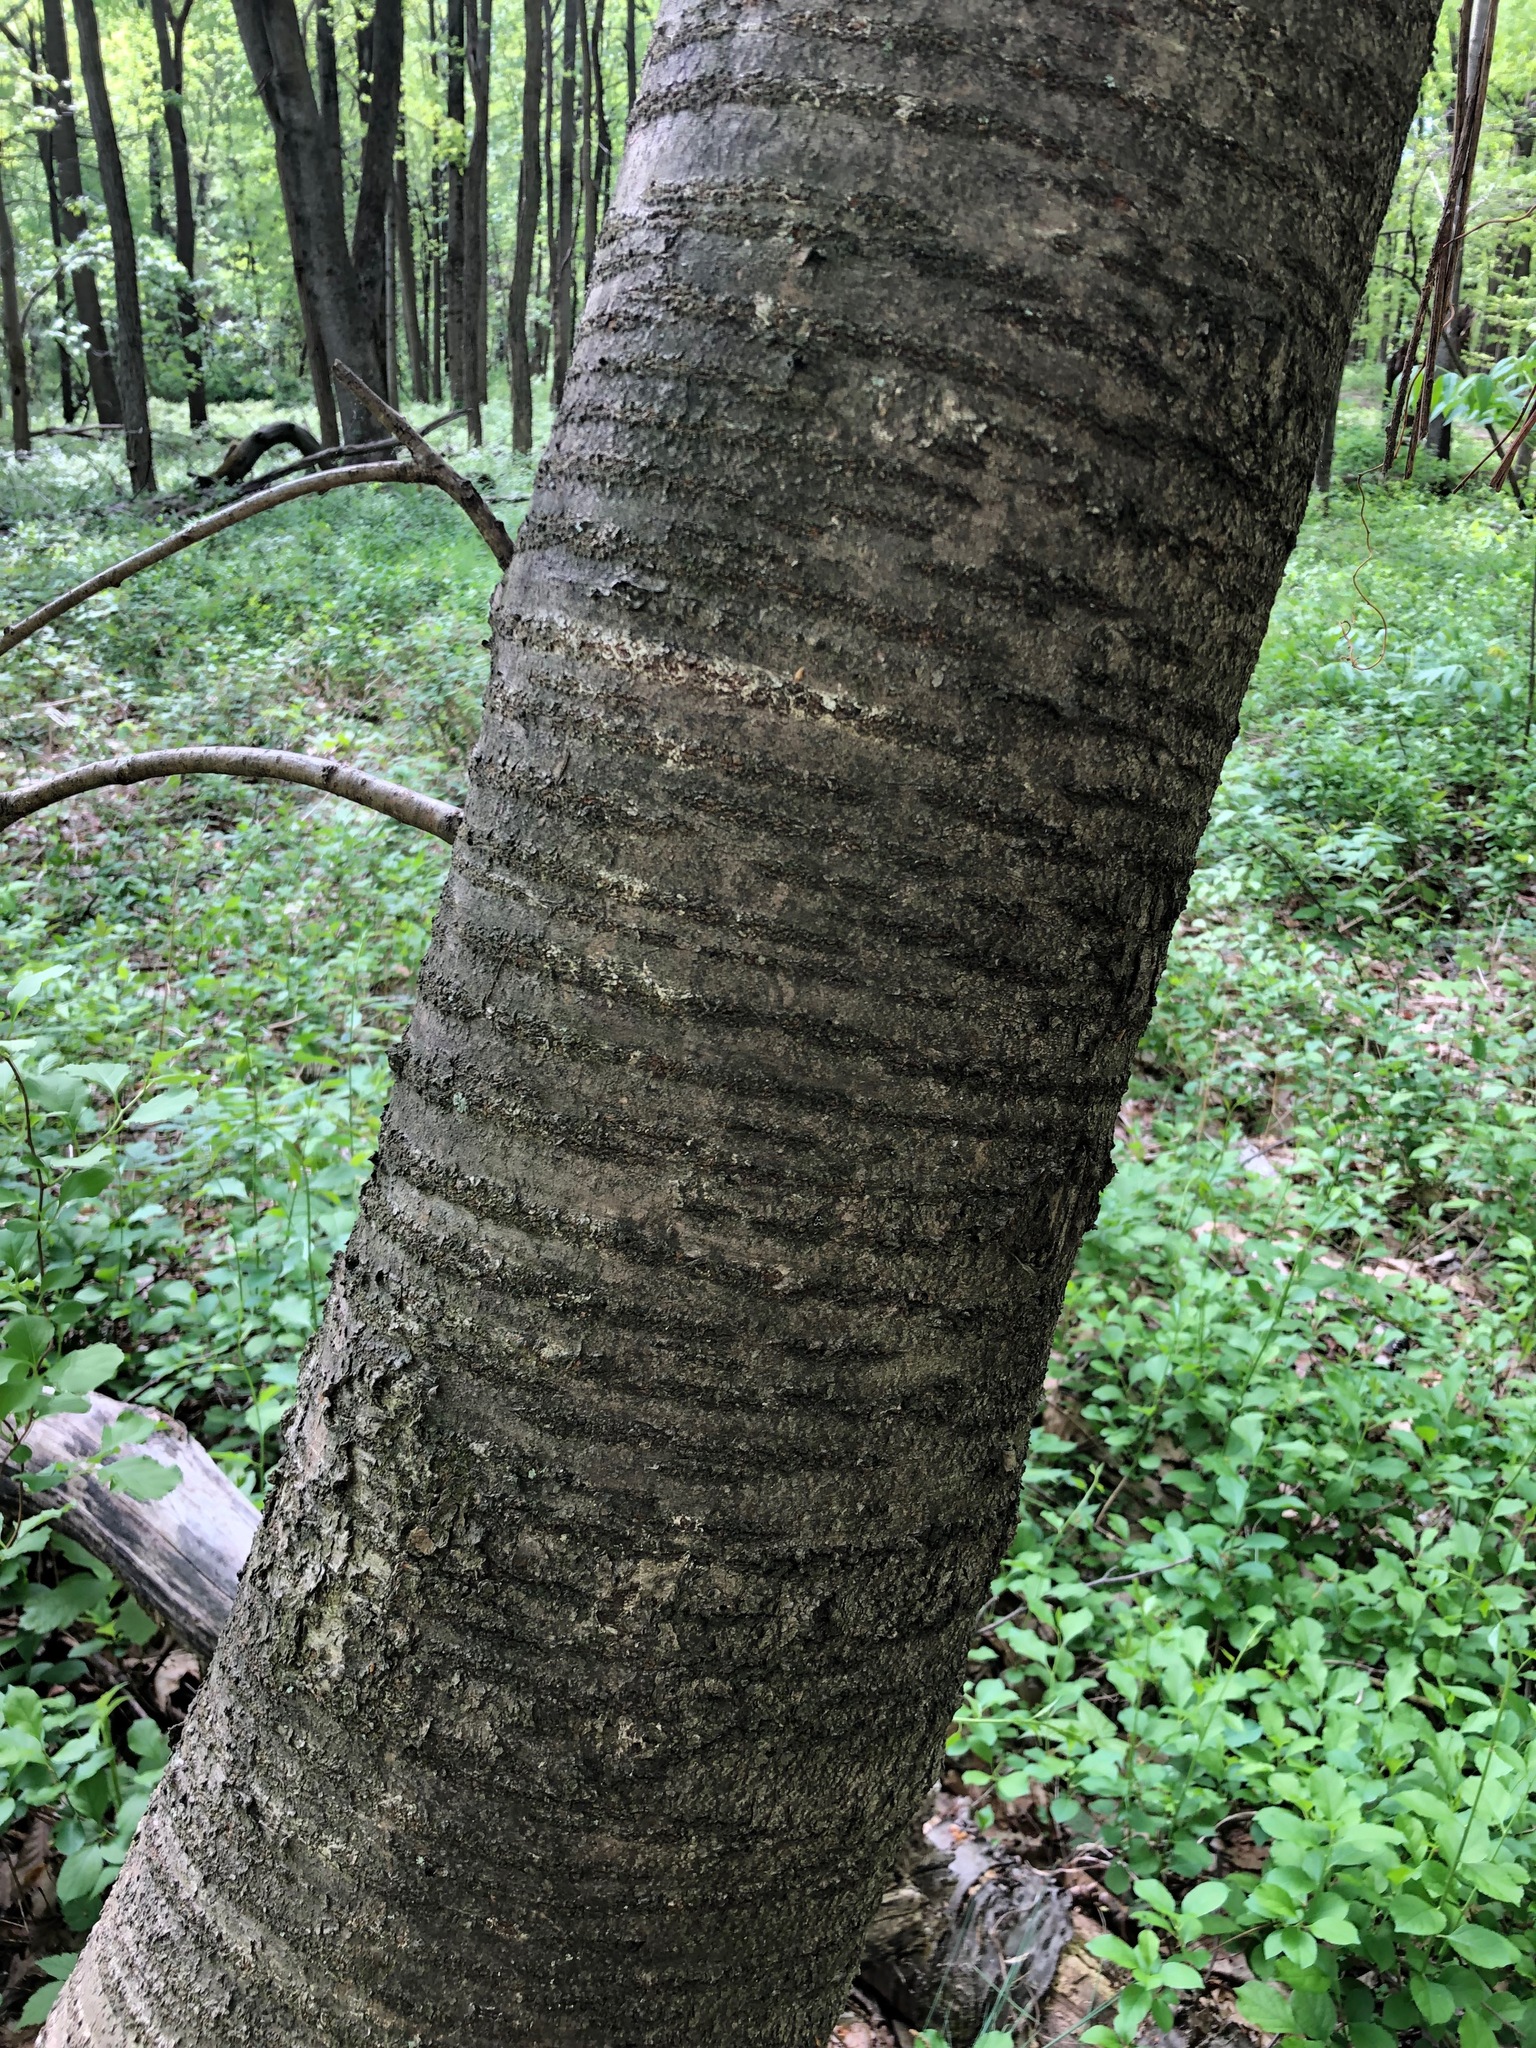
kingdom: Plantae
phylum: Tracheophyta
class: Magnoliopsida
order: Rosales
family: Rosaceae
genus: Prunus
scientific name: Prunus avium
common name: Sweet cherry
